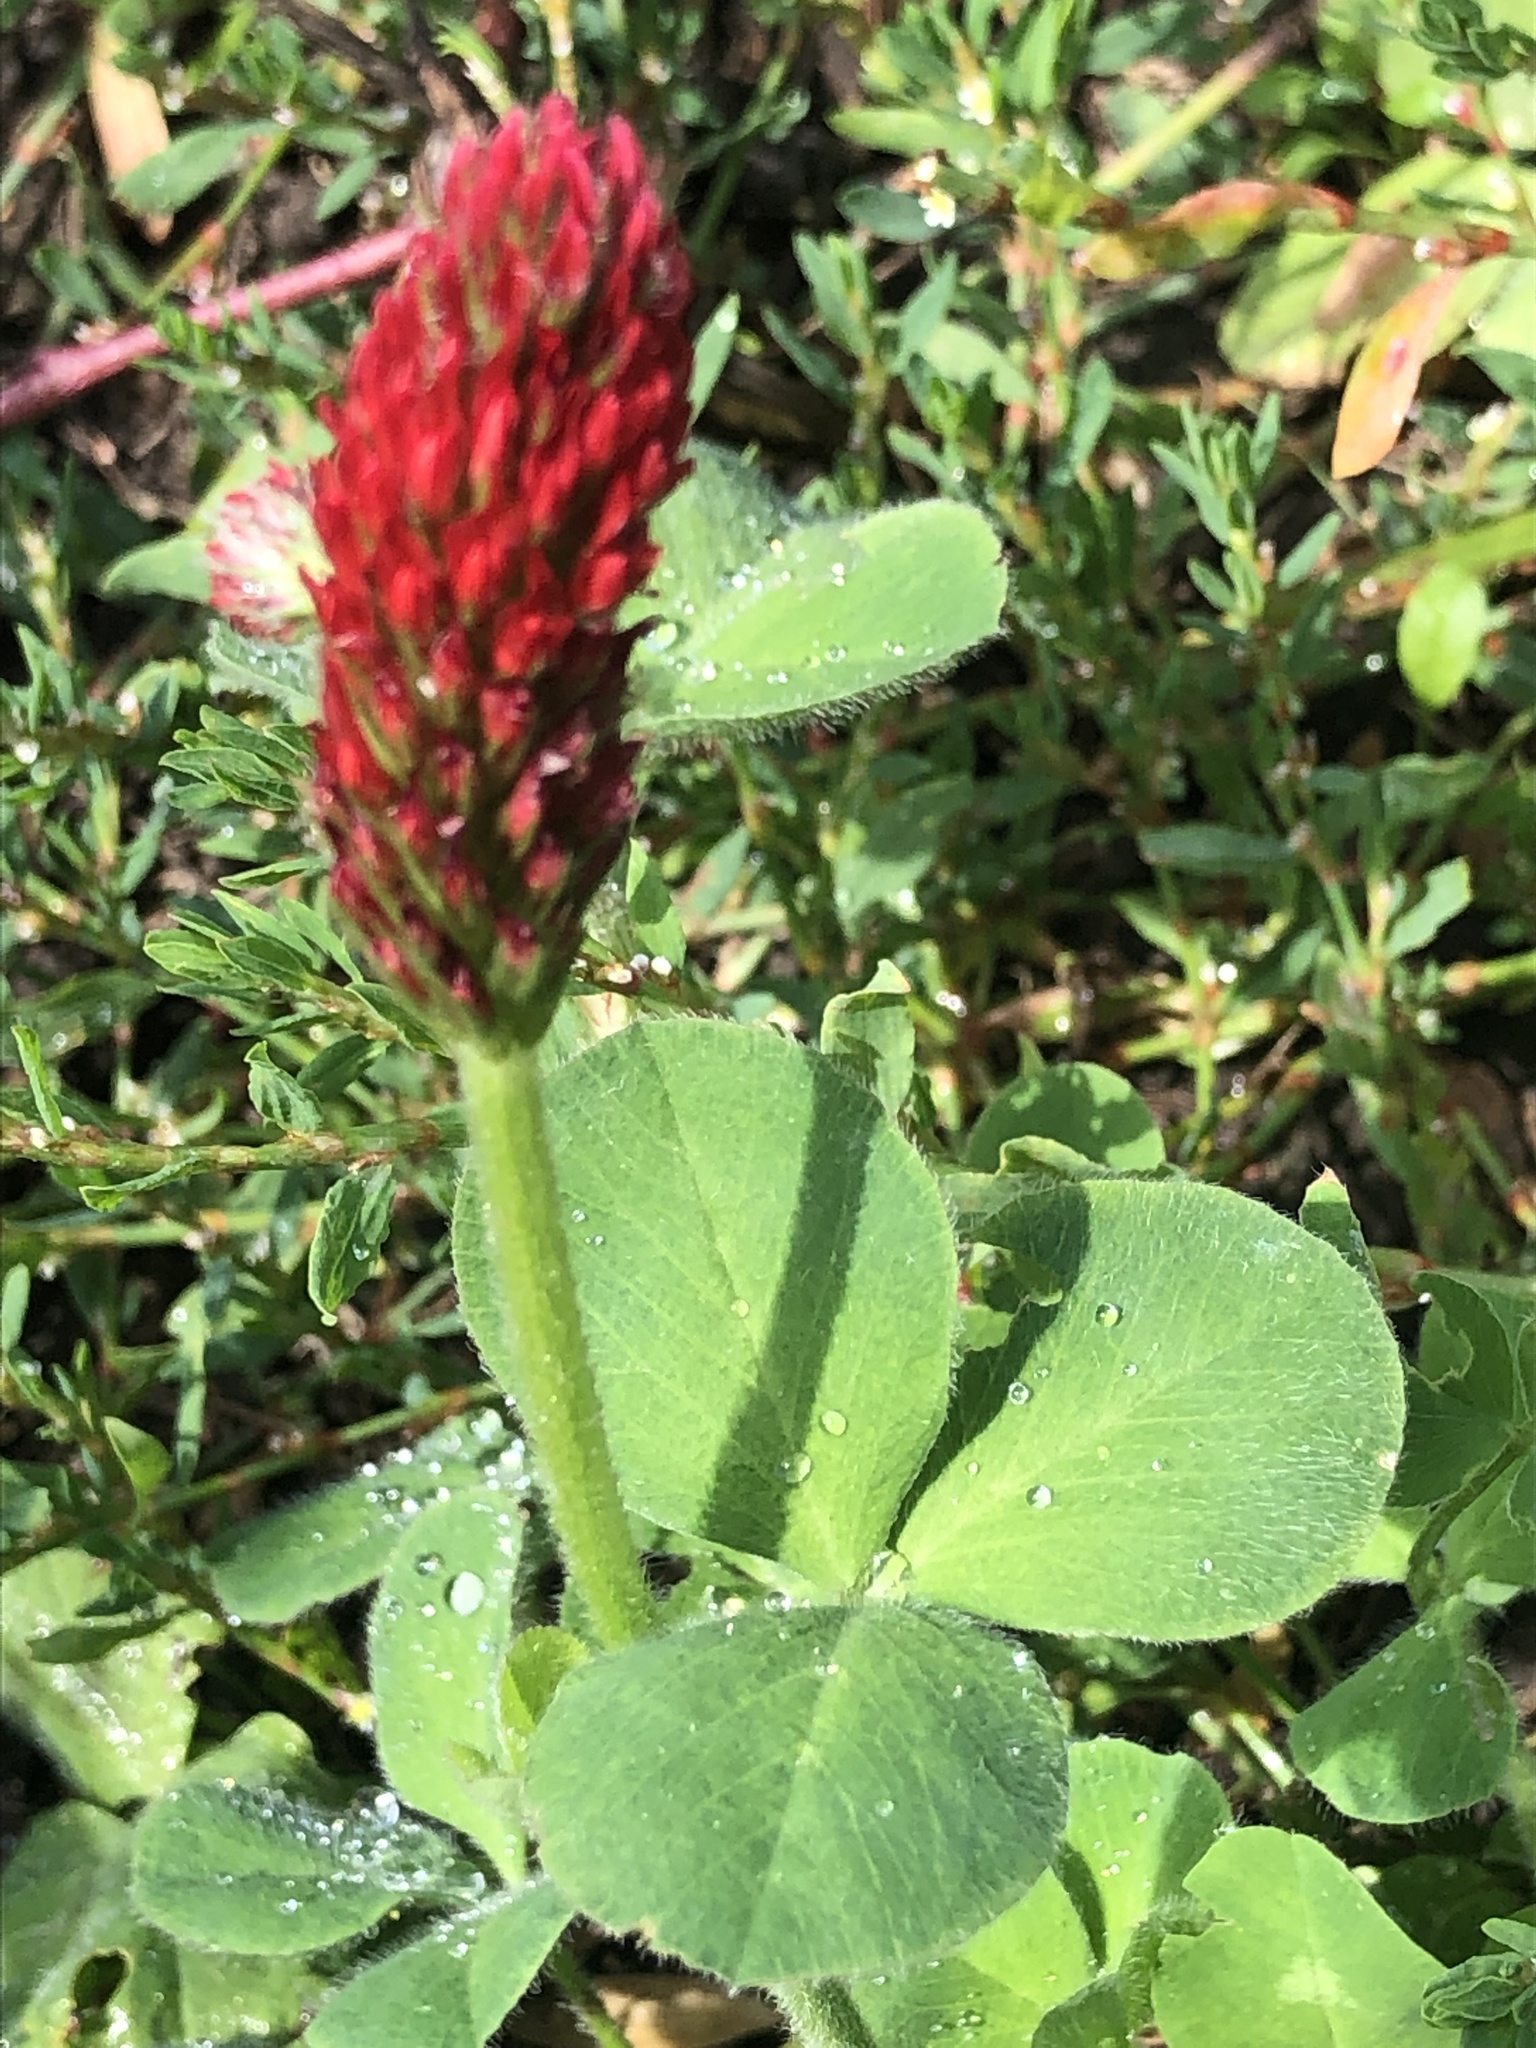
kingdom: Plantae
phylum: Tracheophyta
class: Magnoliopsida
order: Fabales
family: Fabaceae
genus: Trifolium
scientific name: Trifolium incarnatum
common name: Crimson clover
